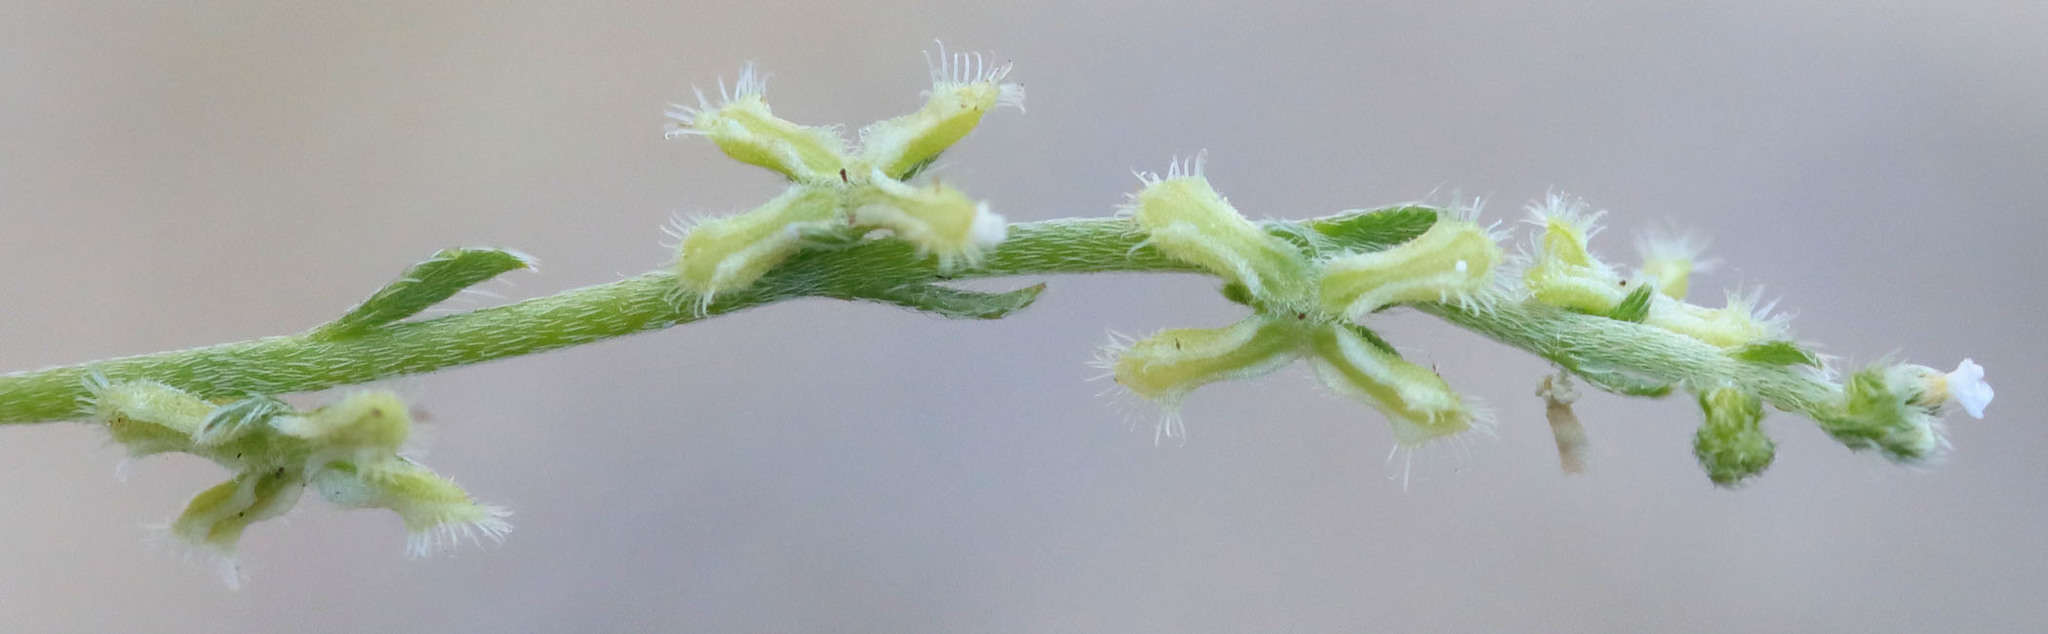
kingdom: Plantae
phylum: Tracheophyta
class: Magnoliopsida
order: Boraginales
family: Boraginaceae
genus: Pectocarya
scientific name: Pectocarya penicillata
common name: Short-leaved combseed
